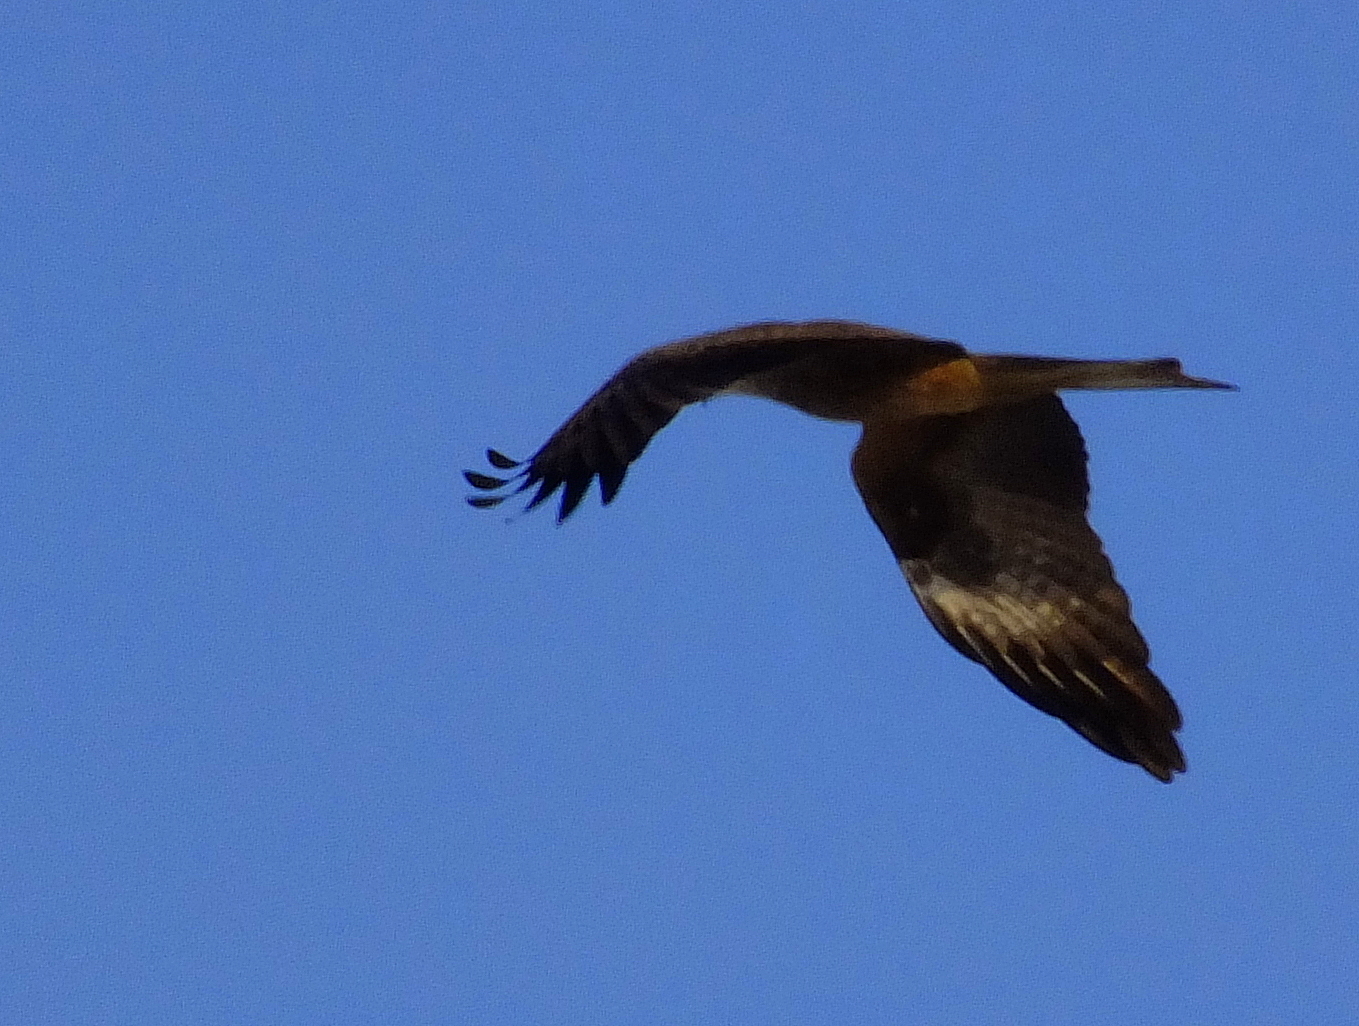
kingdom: Animalia
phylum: Chordata
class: Aves
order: Accipitriformes
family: Accipitridae
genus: Milvus
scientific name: Milvus migrans
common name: Black kite
